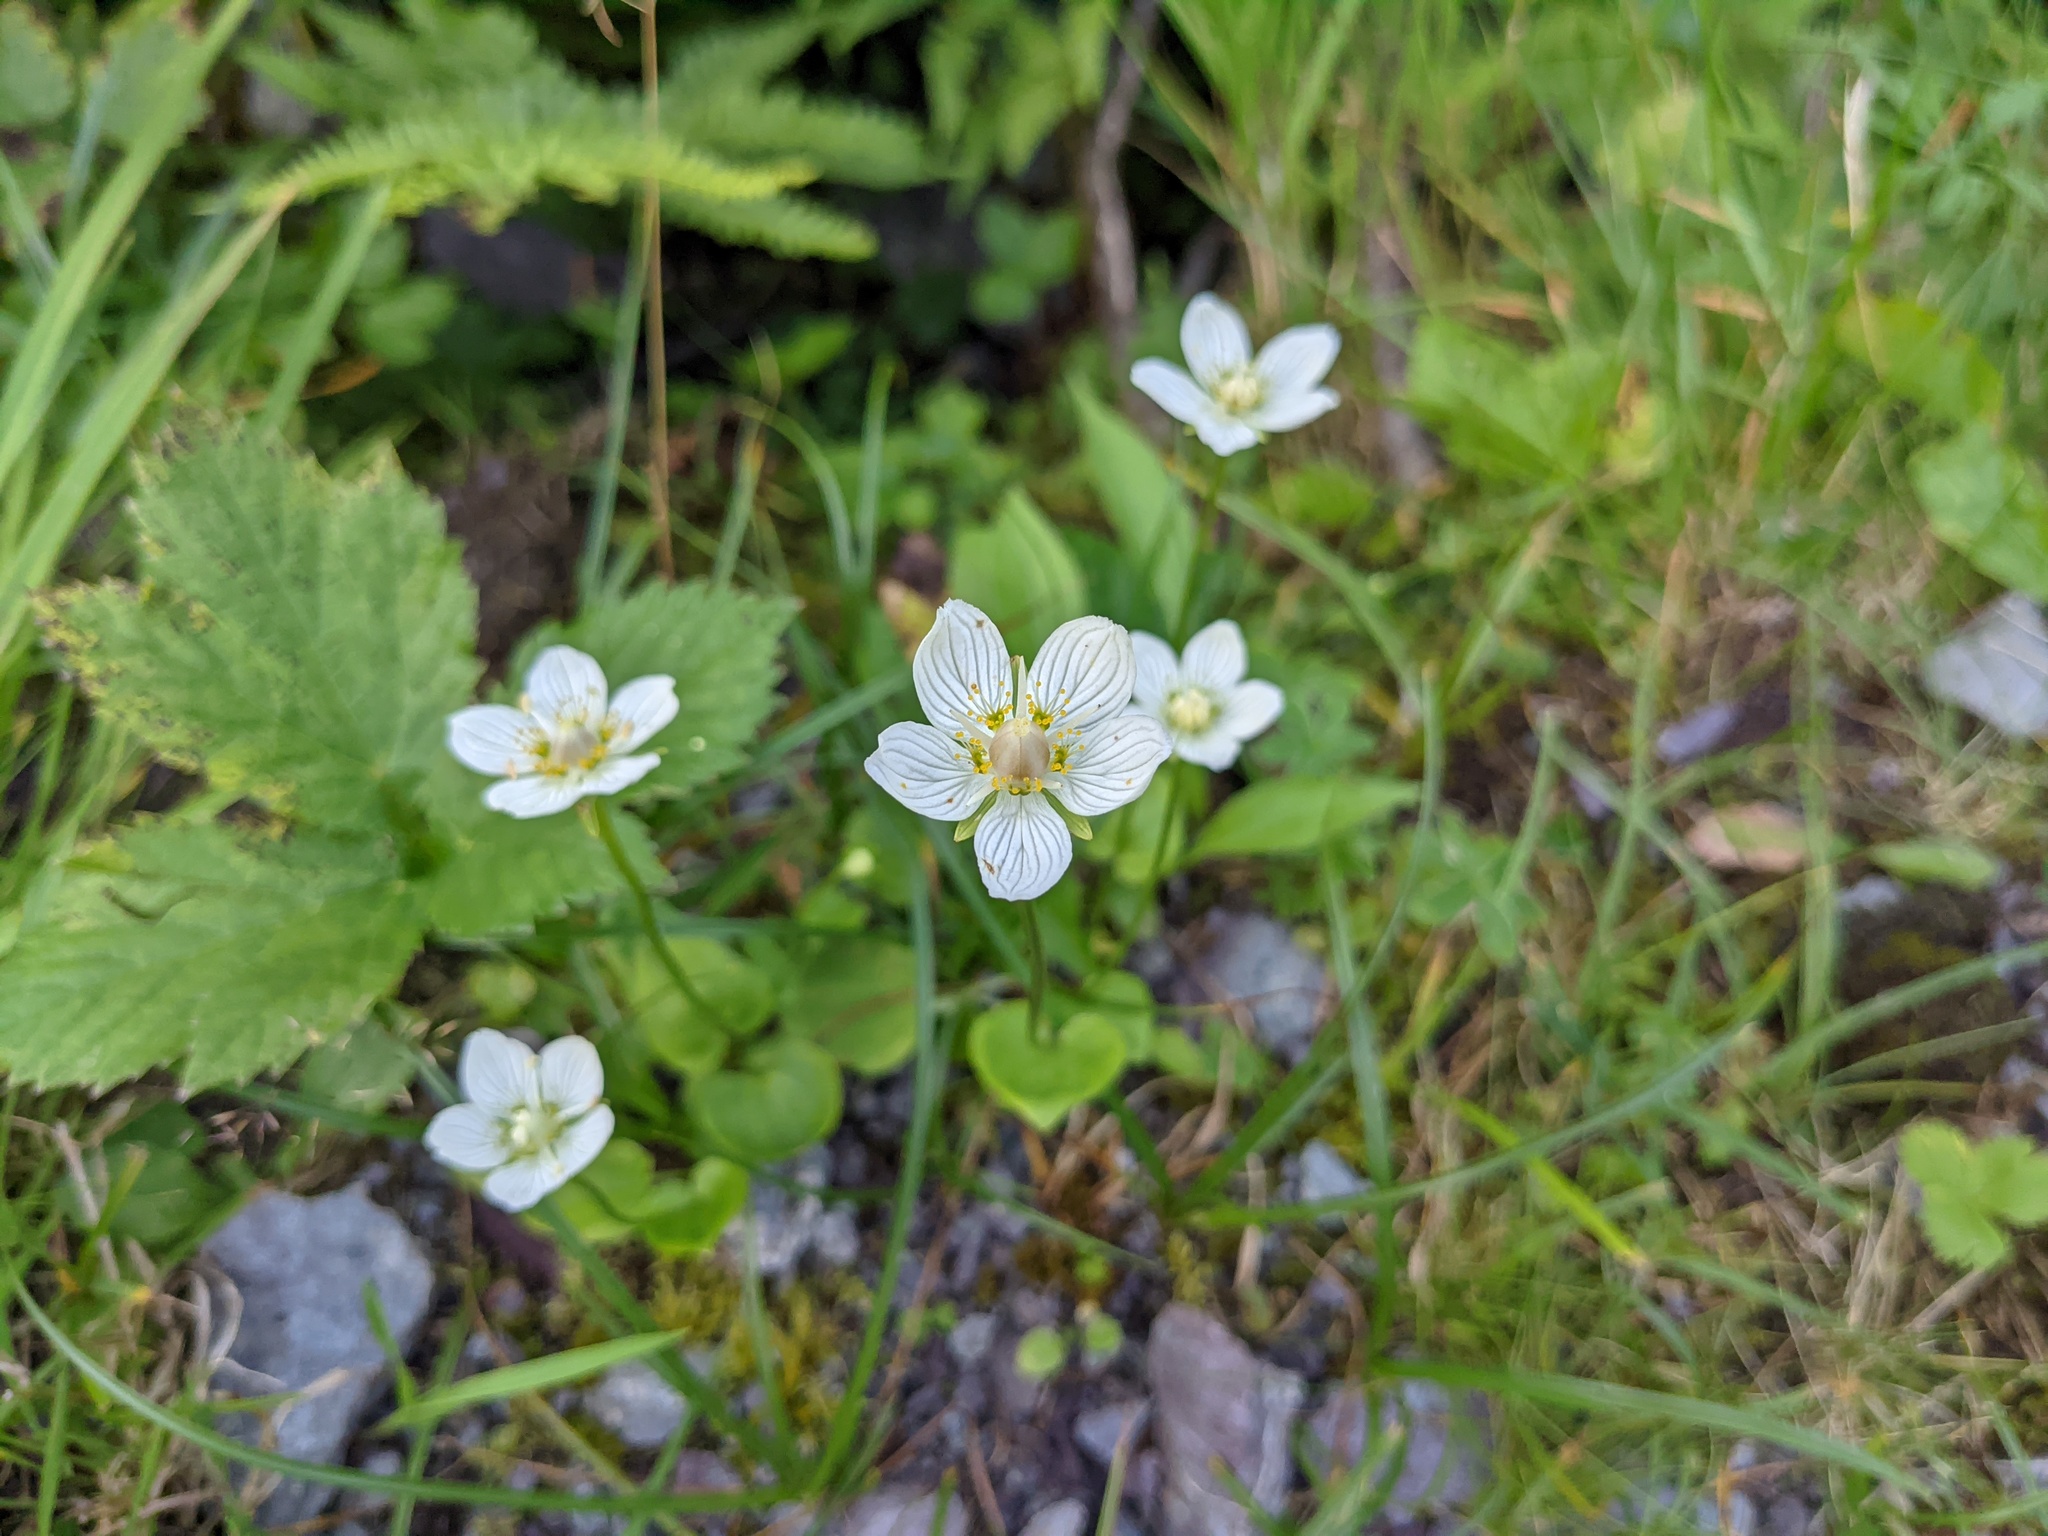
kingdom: Plantae
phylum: Tracheophyta
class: Magnoliopsida
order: Celastrales
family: Parnassiaceae
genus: Parnassia
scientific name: Parnassia palustris
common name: Grass-of-parnassus
